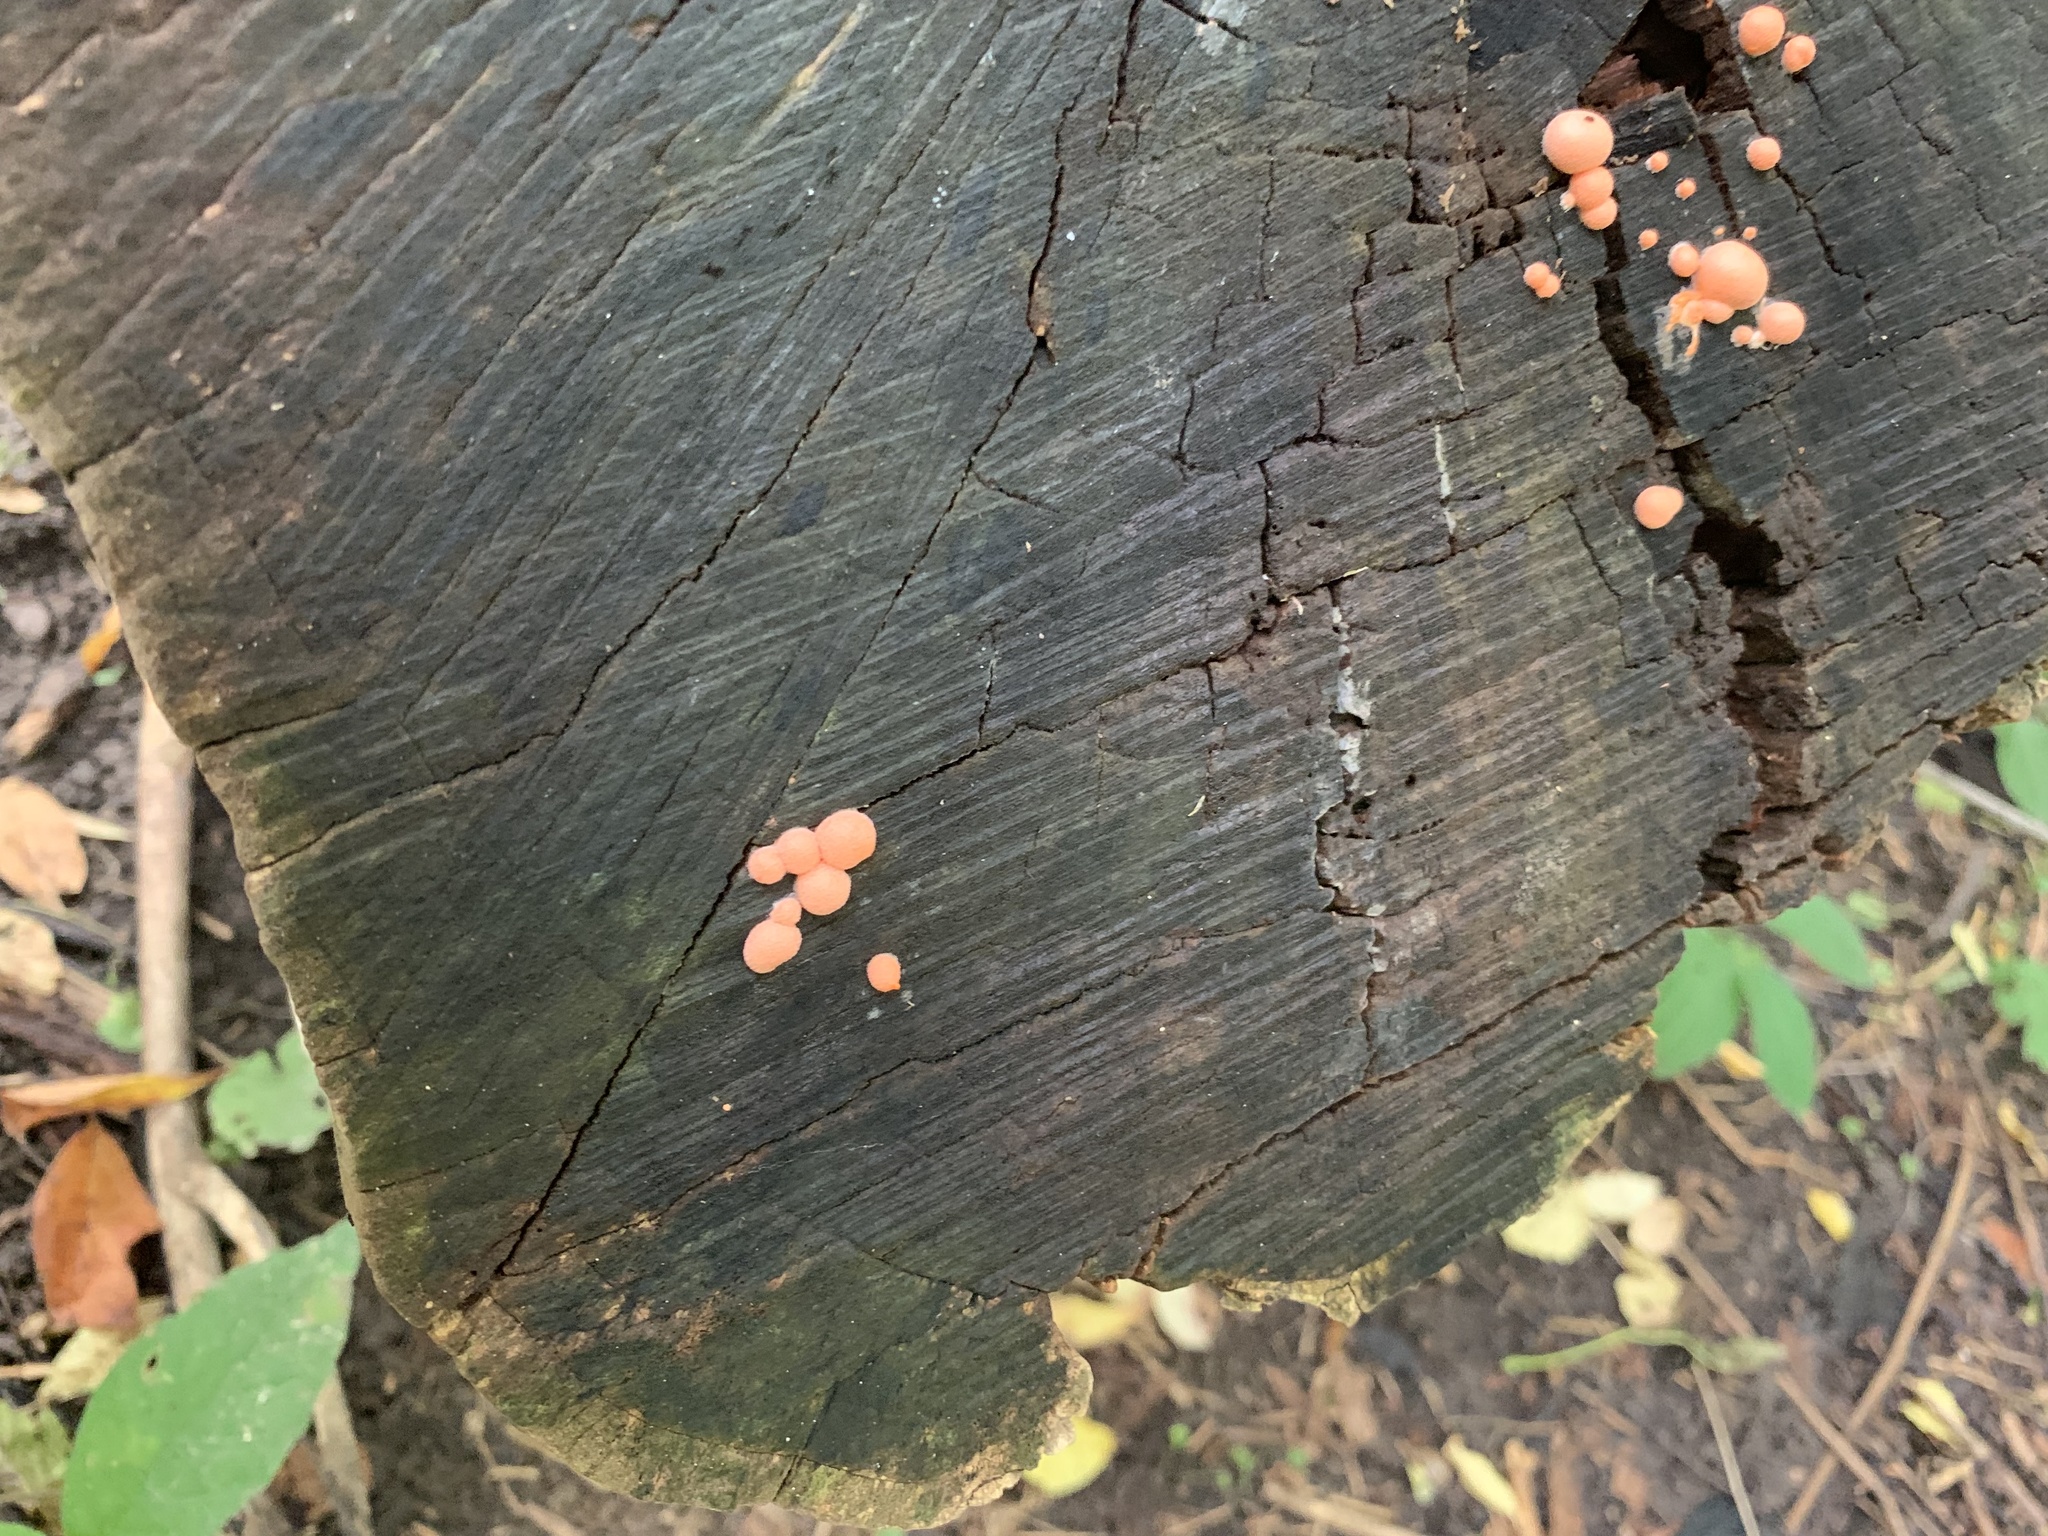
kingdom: Protozoa
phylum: Mycetozoa
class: Myxomycetes
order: Cribrariales
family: Tubiferaceae
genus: Lycogala
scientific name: Lycogala epidendrum
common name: Wolf's milk
